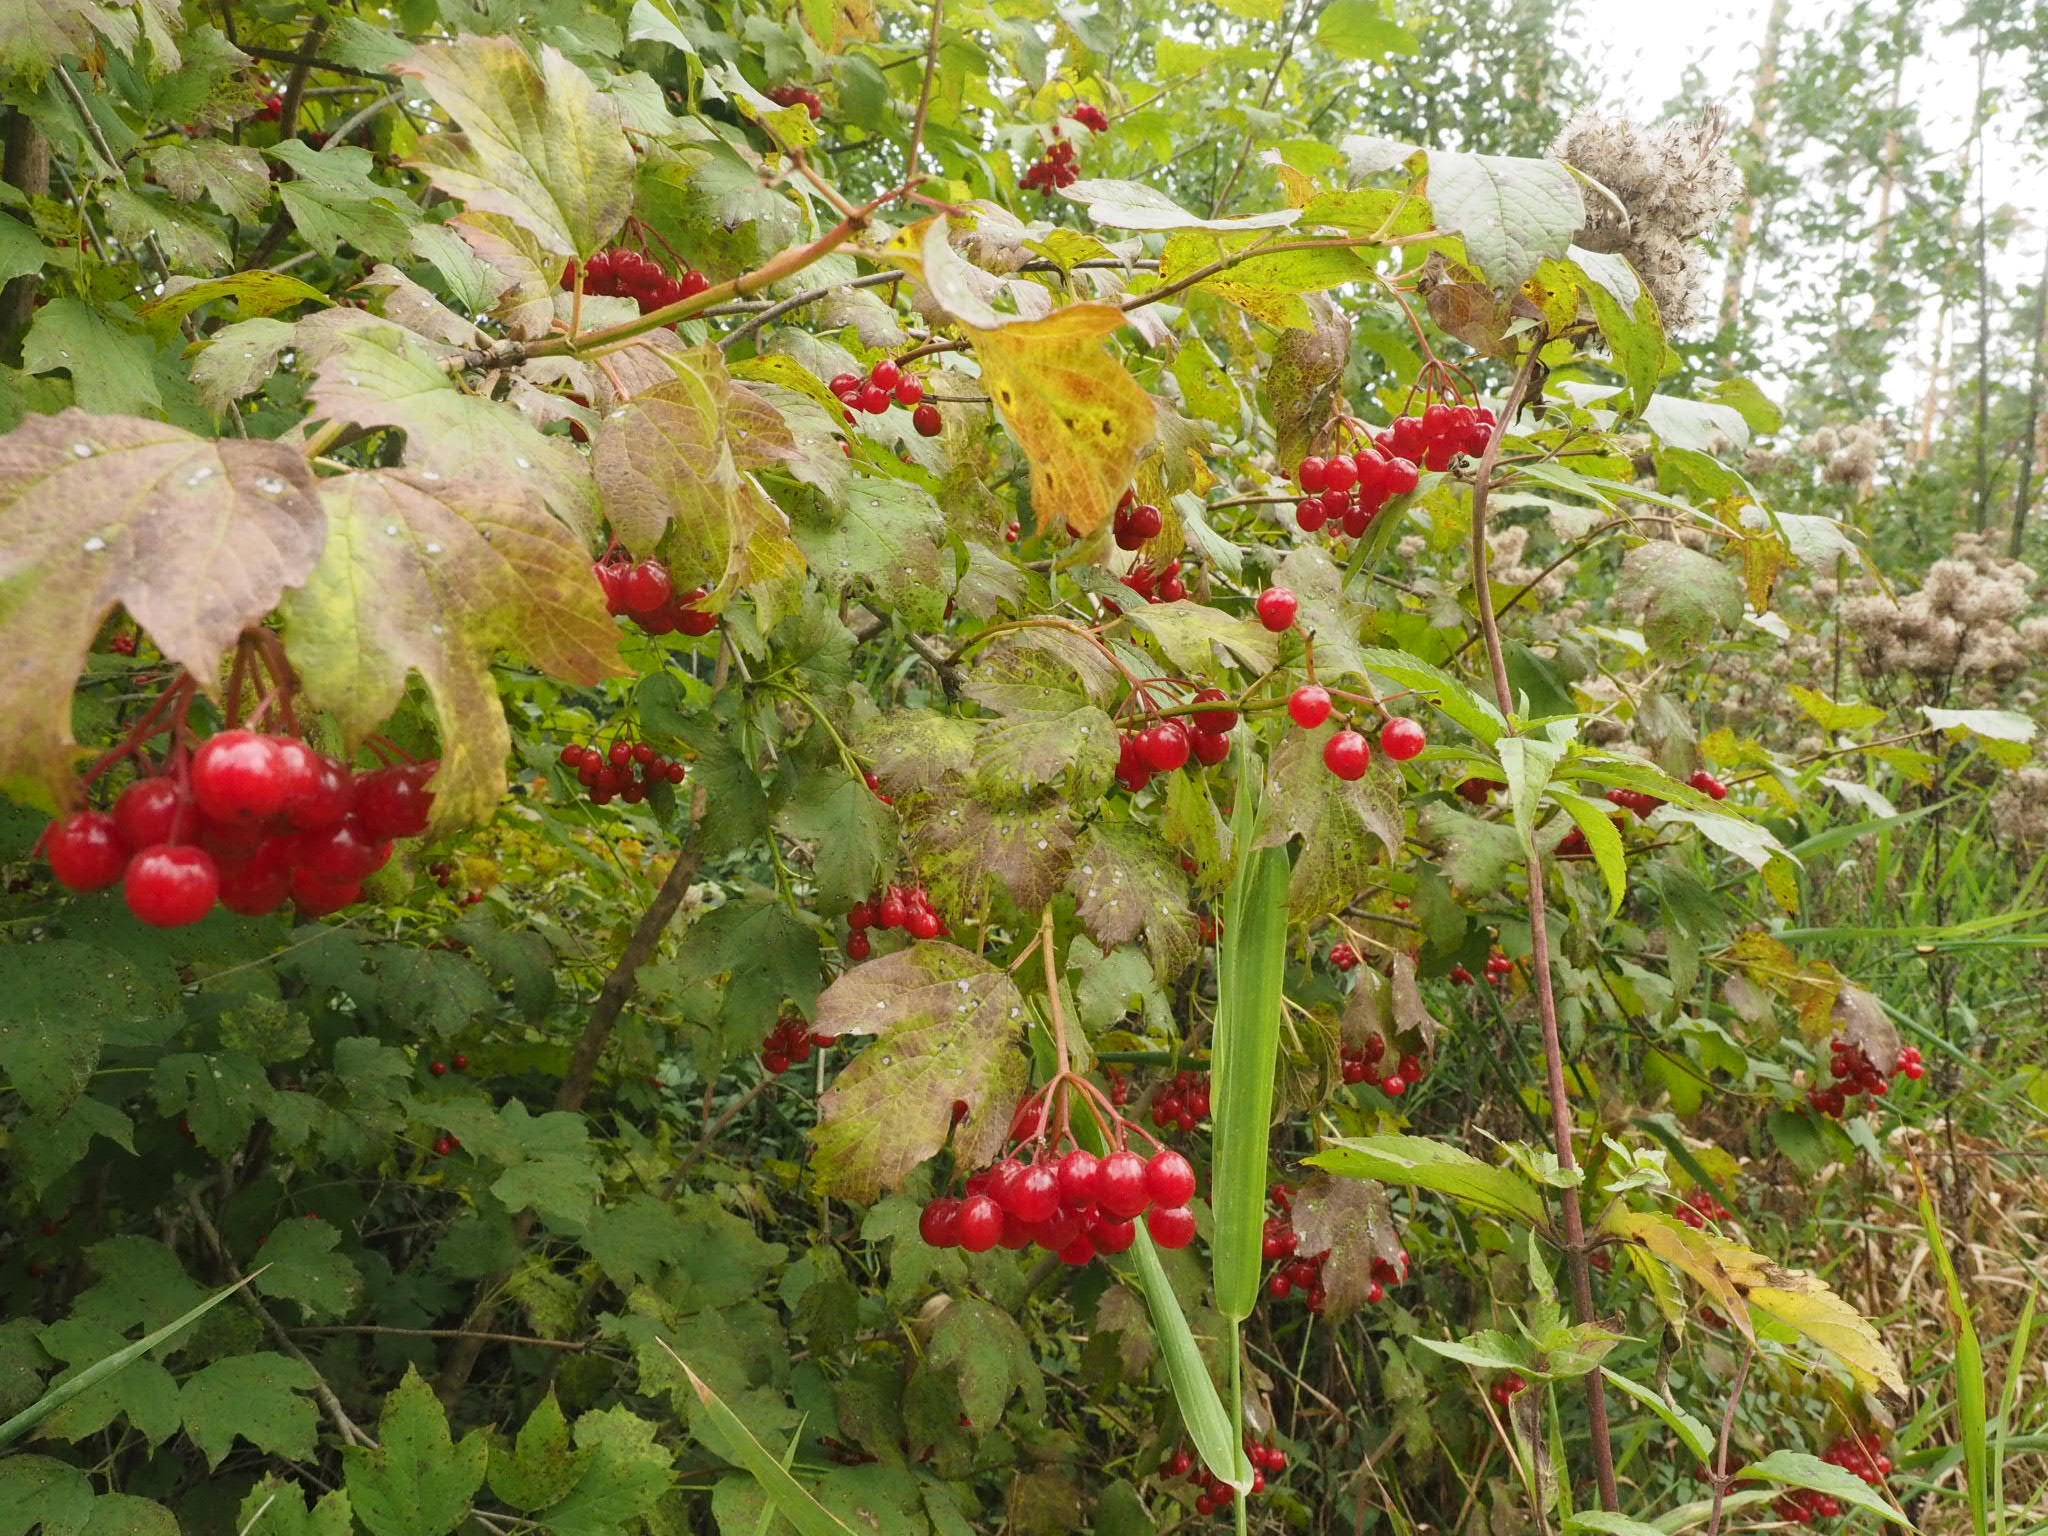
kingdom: Plantae
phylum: Tracheophyta
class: Magnoliopsida
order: Dipsacales
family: Viburnaceae
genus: Viburnum
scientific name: Viburnum opulus
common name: Guelder-rose
